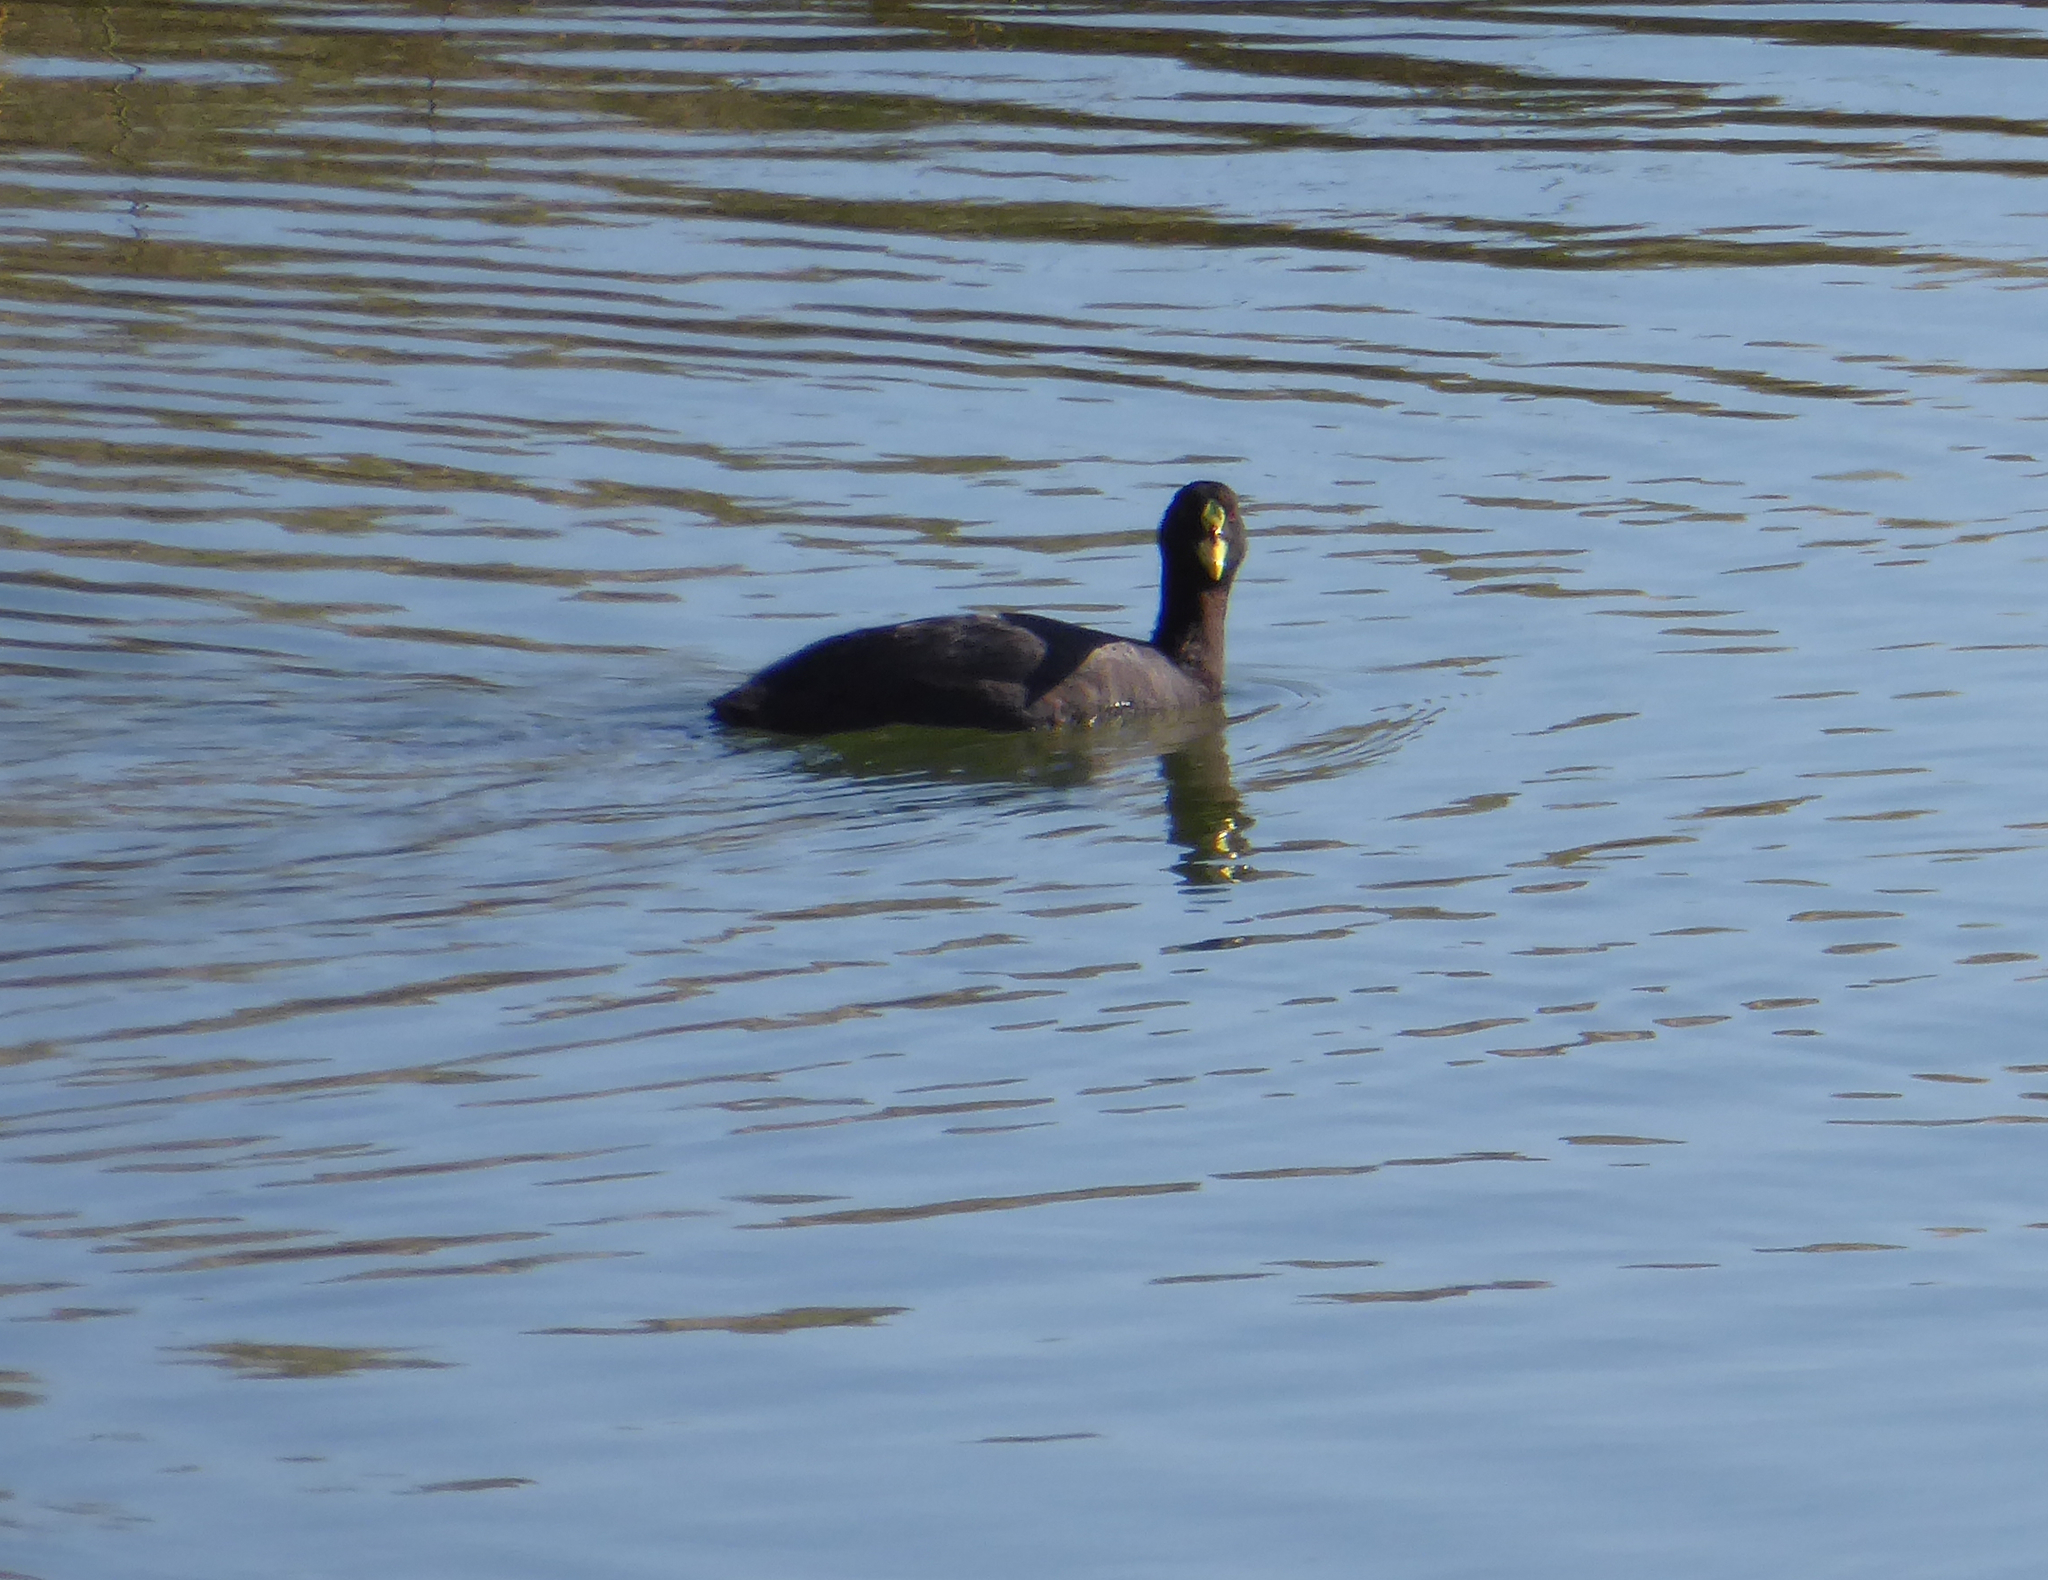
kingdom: Animalia
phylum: Chordata
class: Aves
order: Gruiformes
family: Rallidae
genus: Fulica
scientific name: Fulica armillata
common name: Red-gartered coot
